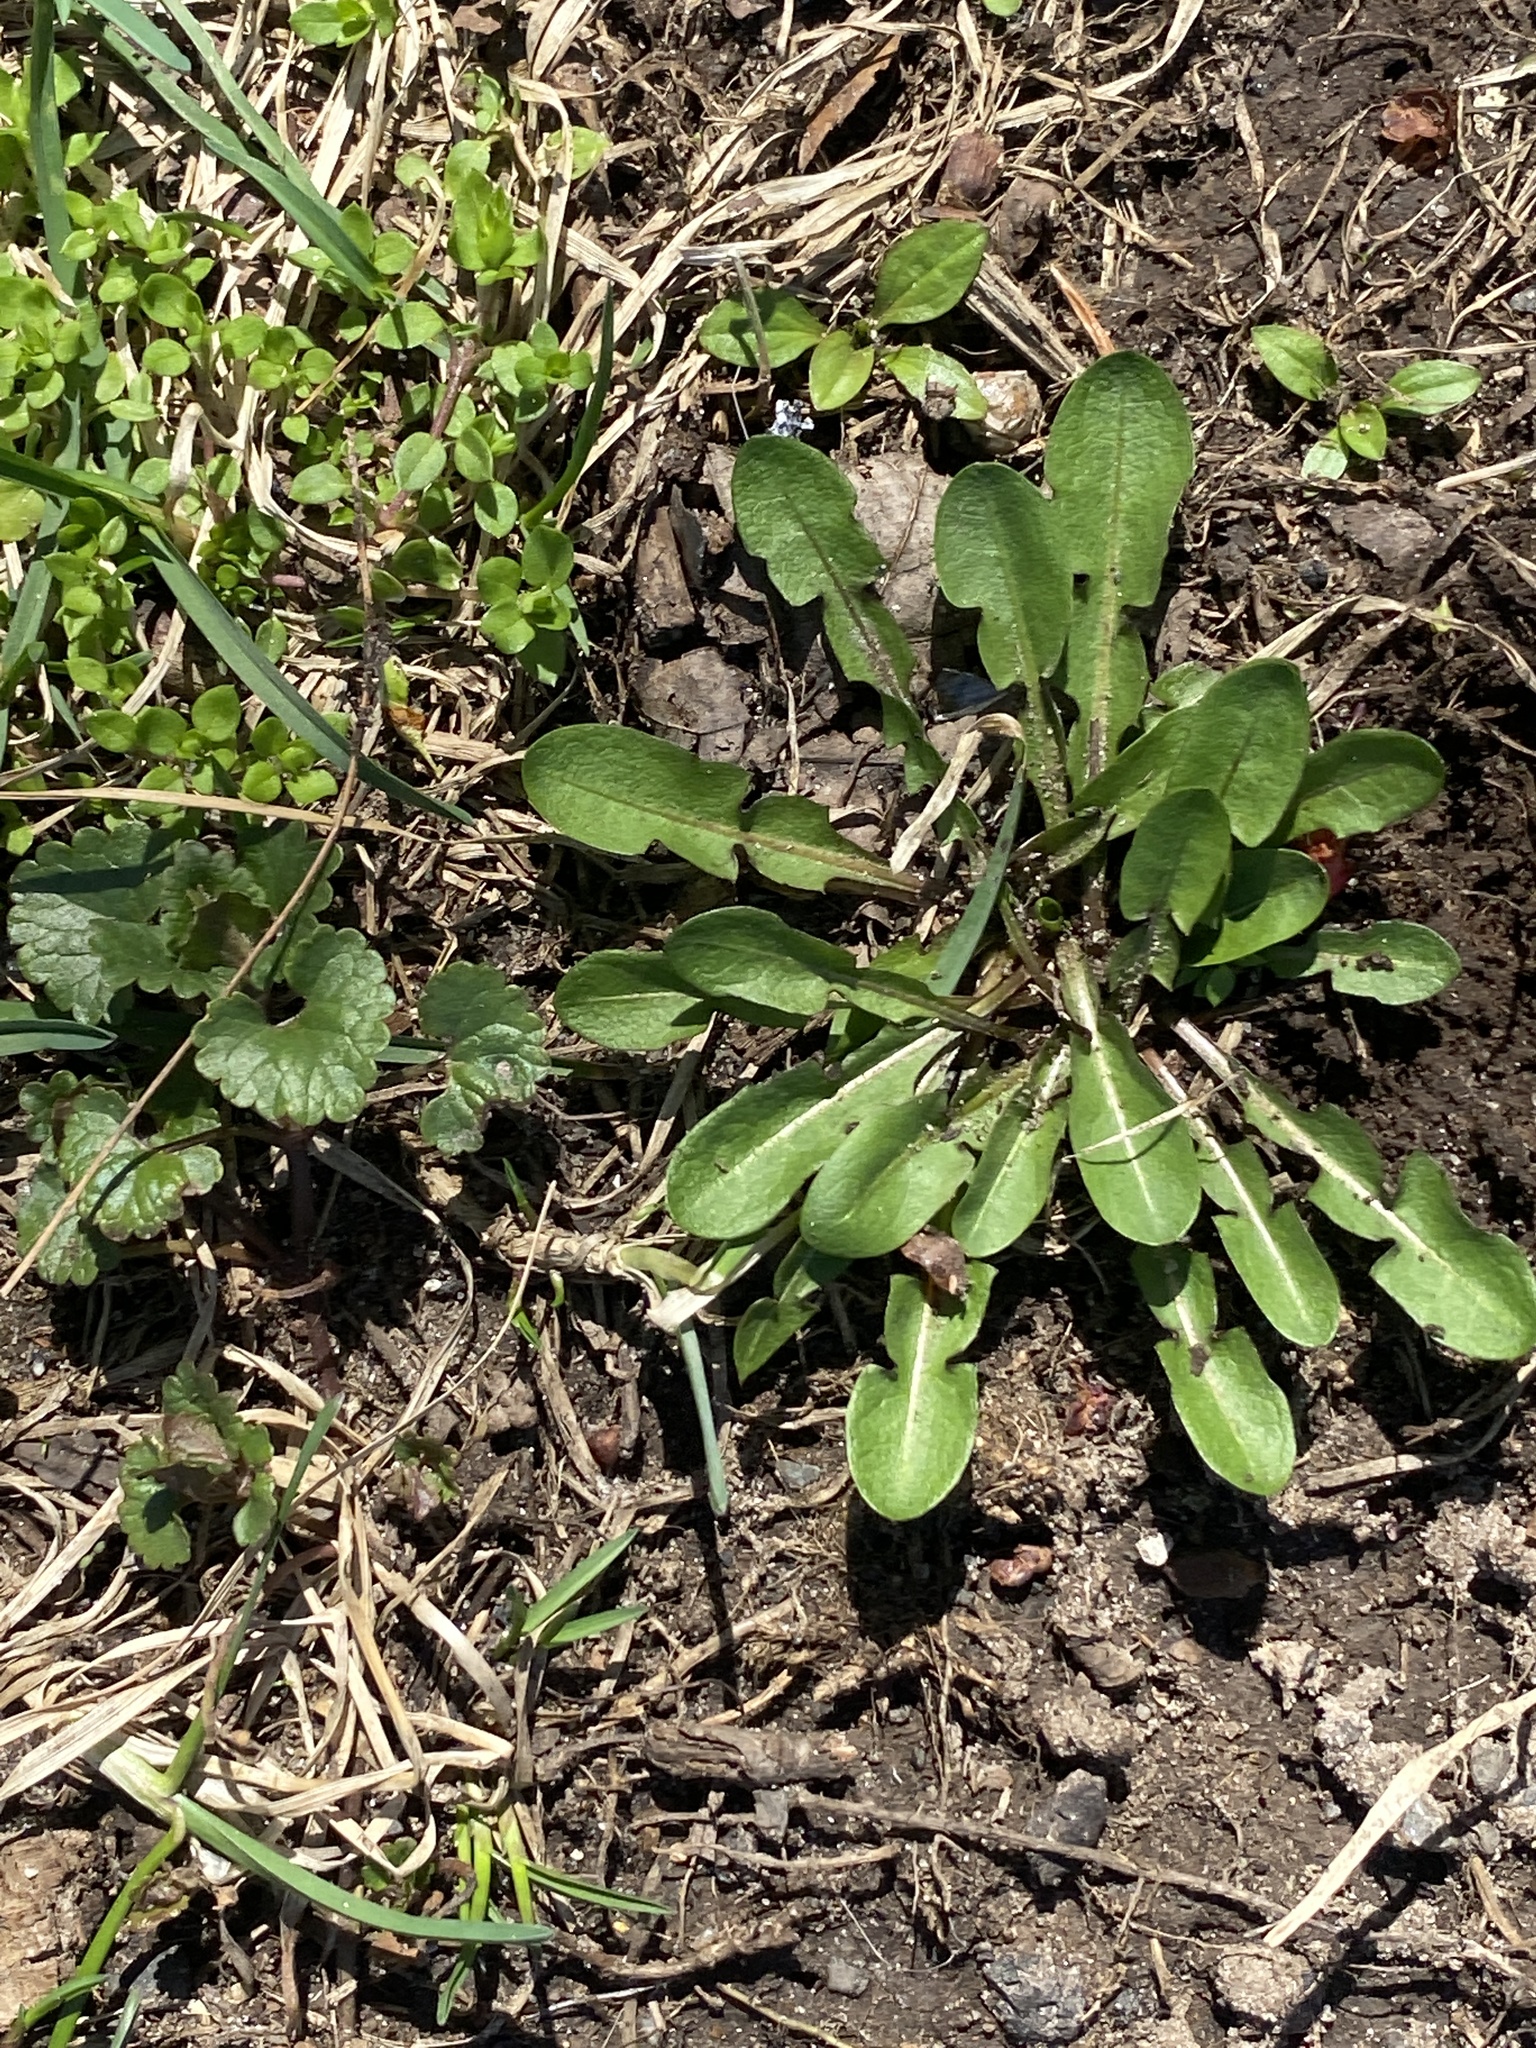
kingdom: Plantae
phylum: Tracheophyta
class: Magnoliopsida
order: Asterales
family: Asteraceae
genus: Taraxacum
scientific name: Taraxacum officinale
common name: Common dandelion
